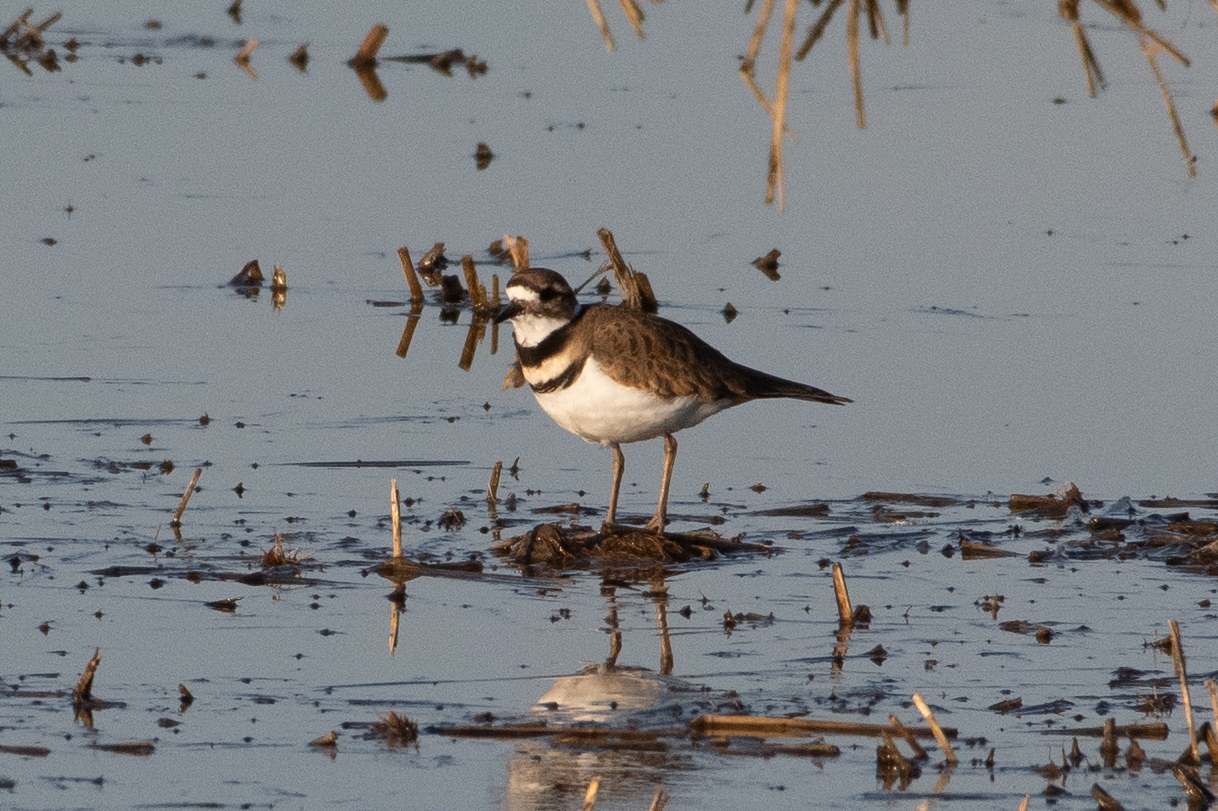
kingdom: Animalia
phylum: Chordata
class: Aves
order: Charadriiformes
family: Charadriidae
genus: Charadrius
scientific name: Charadrius vociferus
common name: Killdeer
